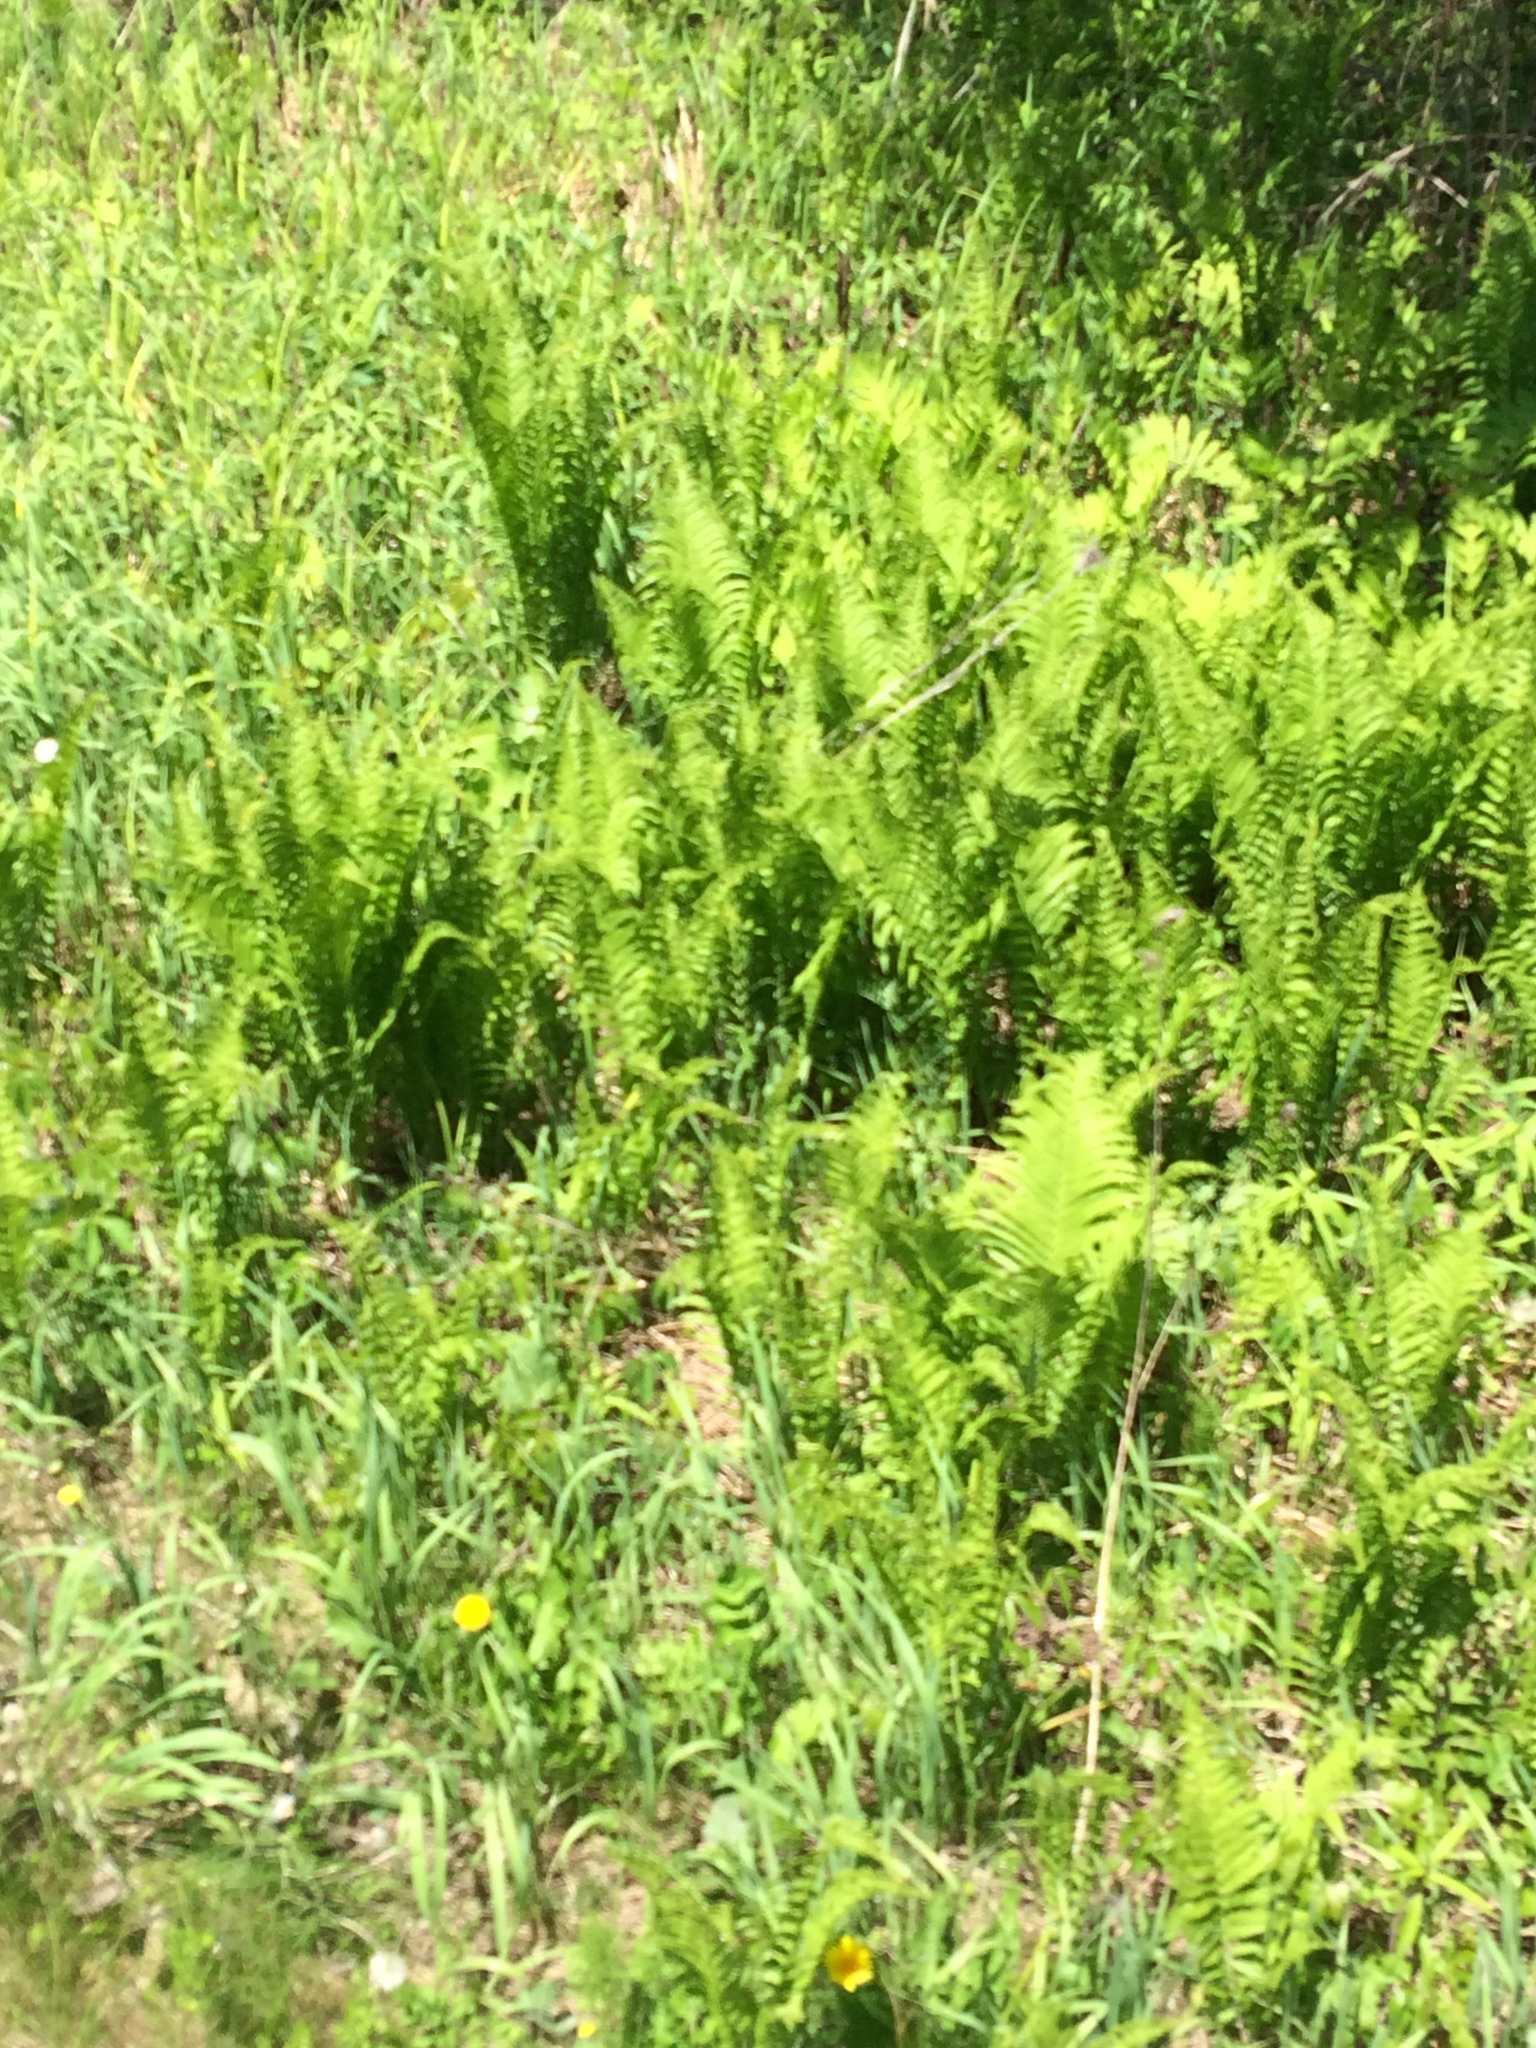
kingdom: Plantae
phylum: Tracheophyta
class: Polypodiopsida
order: Polypodiales
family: Onocleaceae
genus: Matteuccia
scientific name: Matteuccia struthiopteris
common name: Ostrich fern
